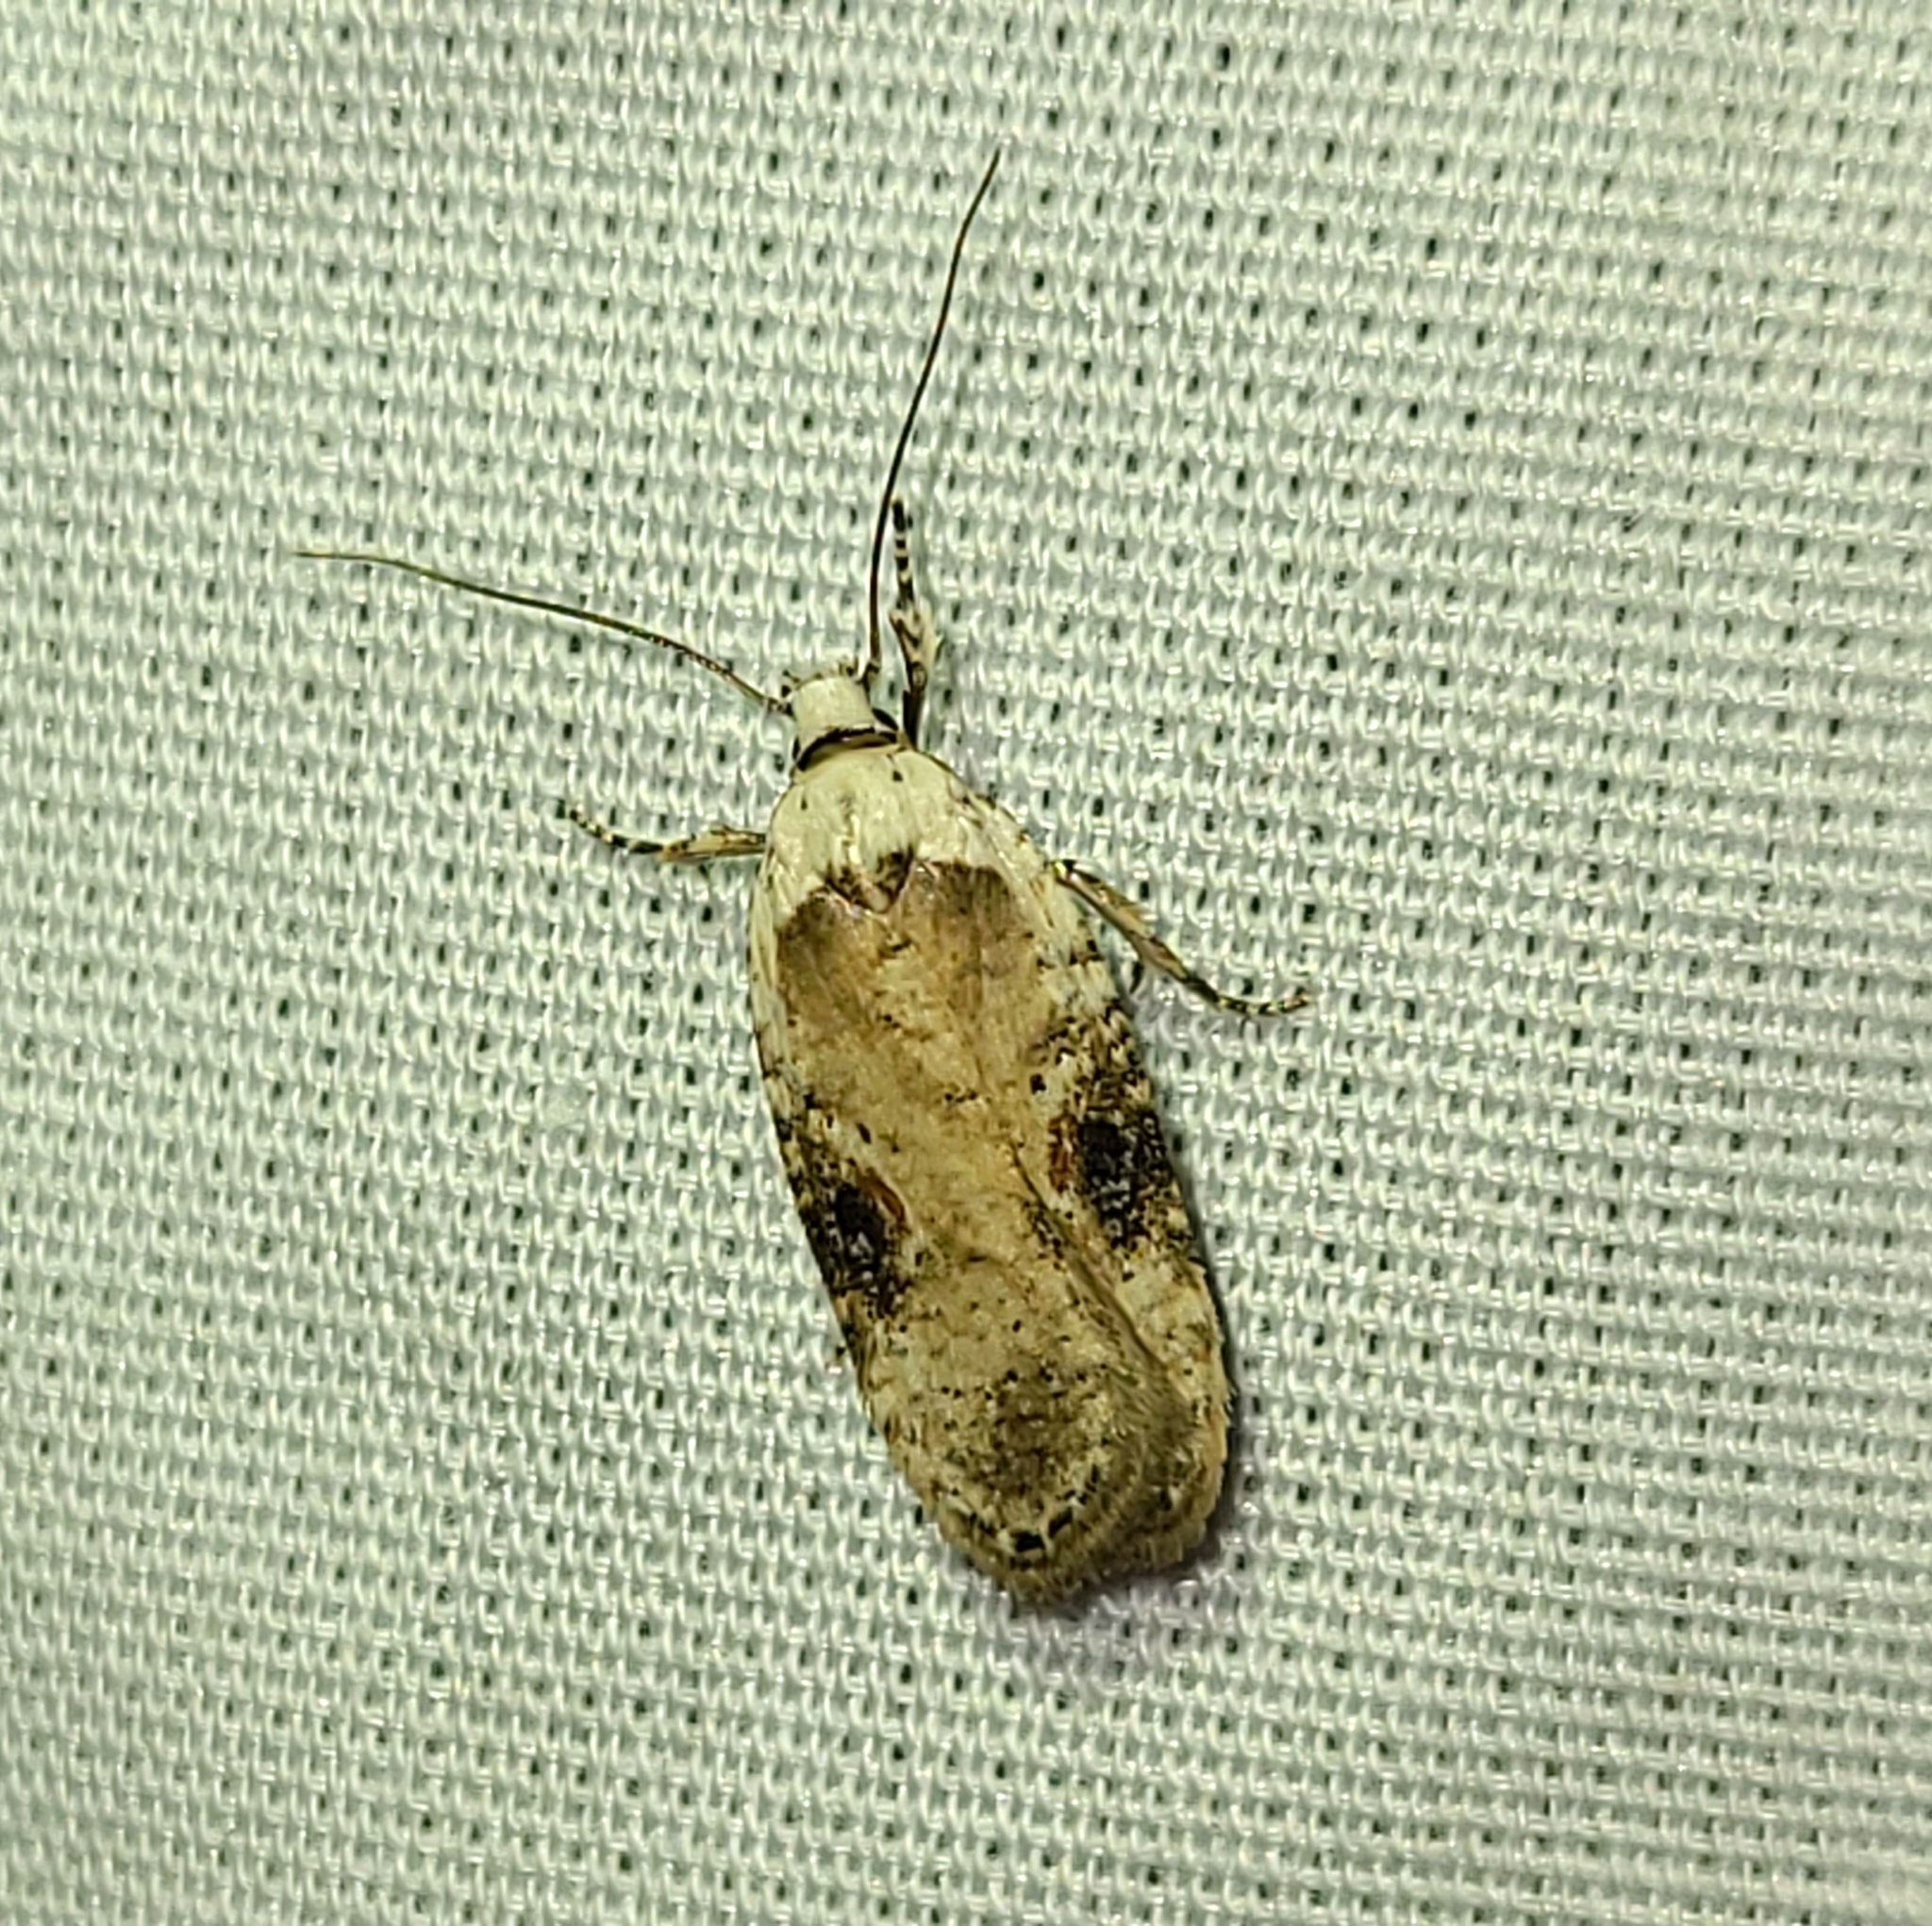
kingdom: Animalia
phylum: Arthropoda
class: Insecta
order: Lepidoptera
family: Depressariidae
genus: Agonopterix
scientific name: Agonopterix alstroemeriana
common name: Moth
